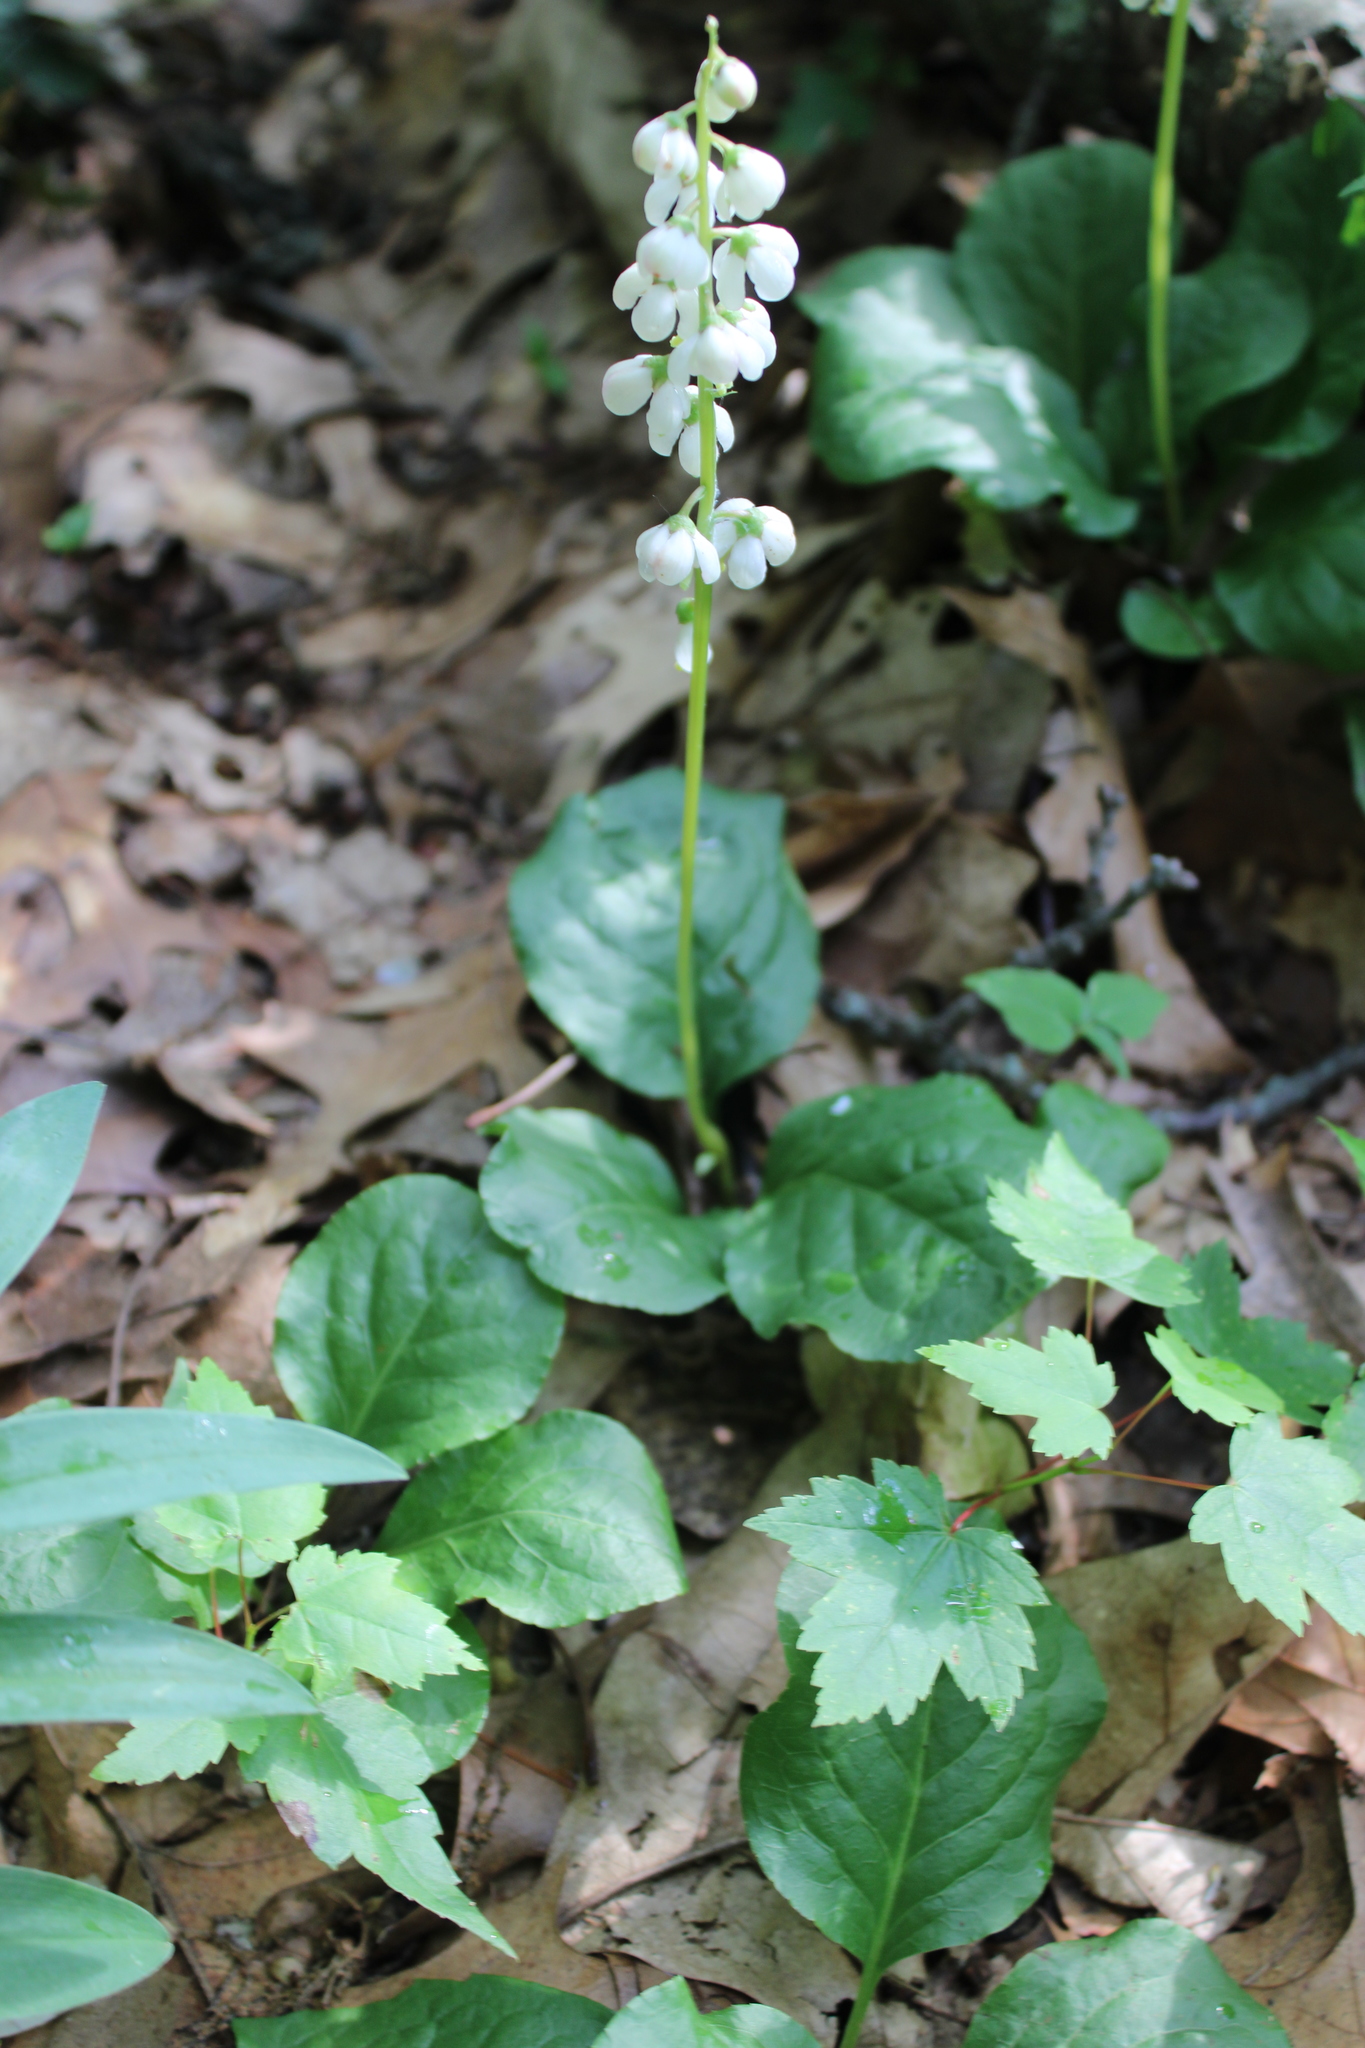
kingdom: Plantae
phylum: Tracheophyta
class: Magnoliopsida
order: Ericales
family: Ericaceae
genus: Pyrola
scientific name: Pyrola elliptica
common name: Shinleaf
